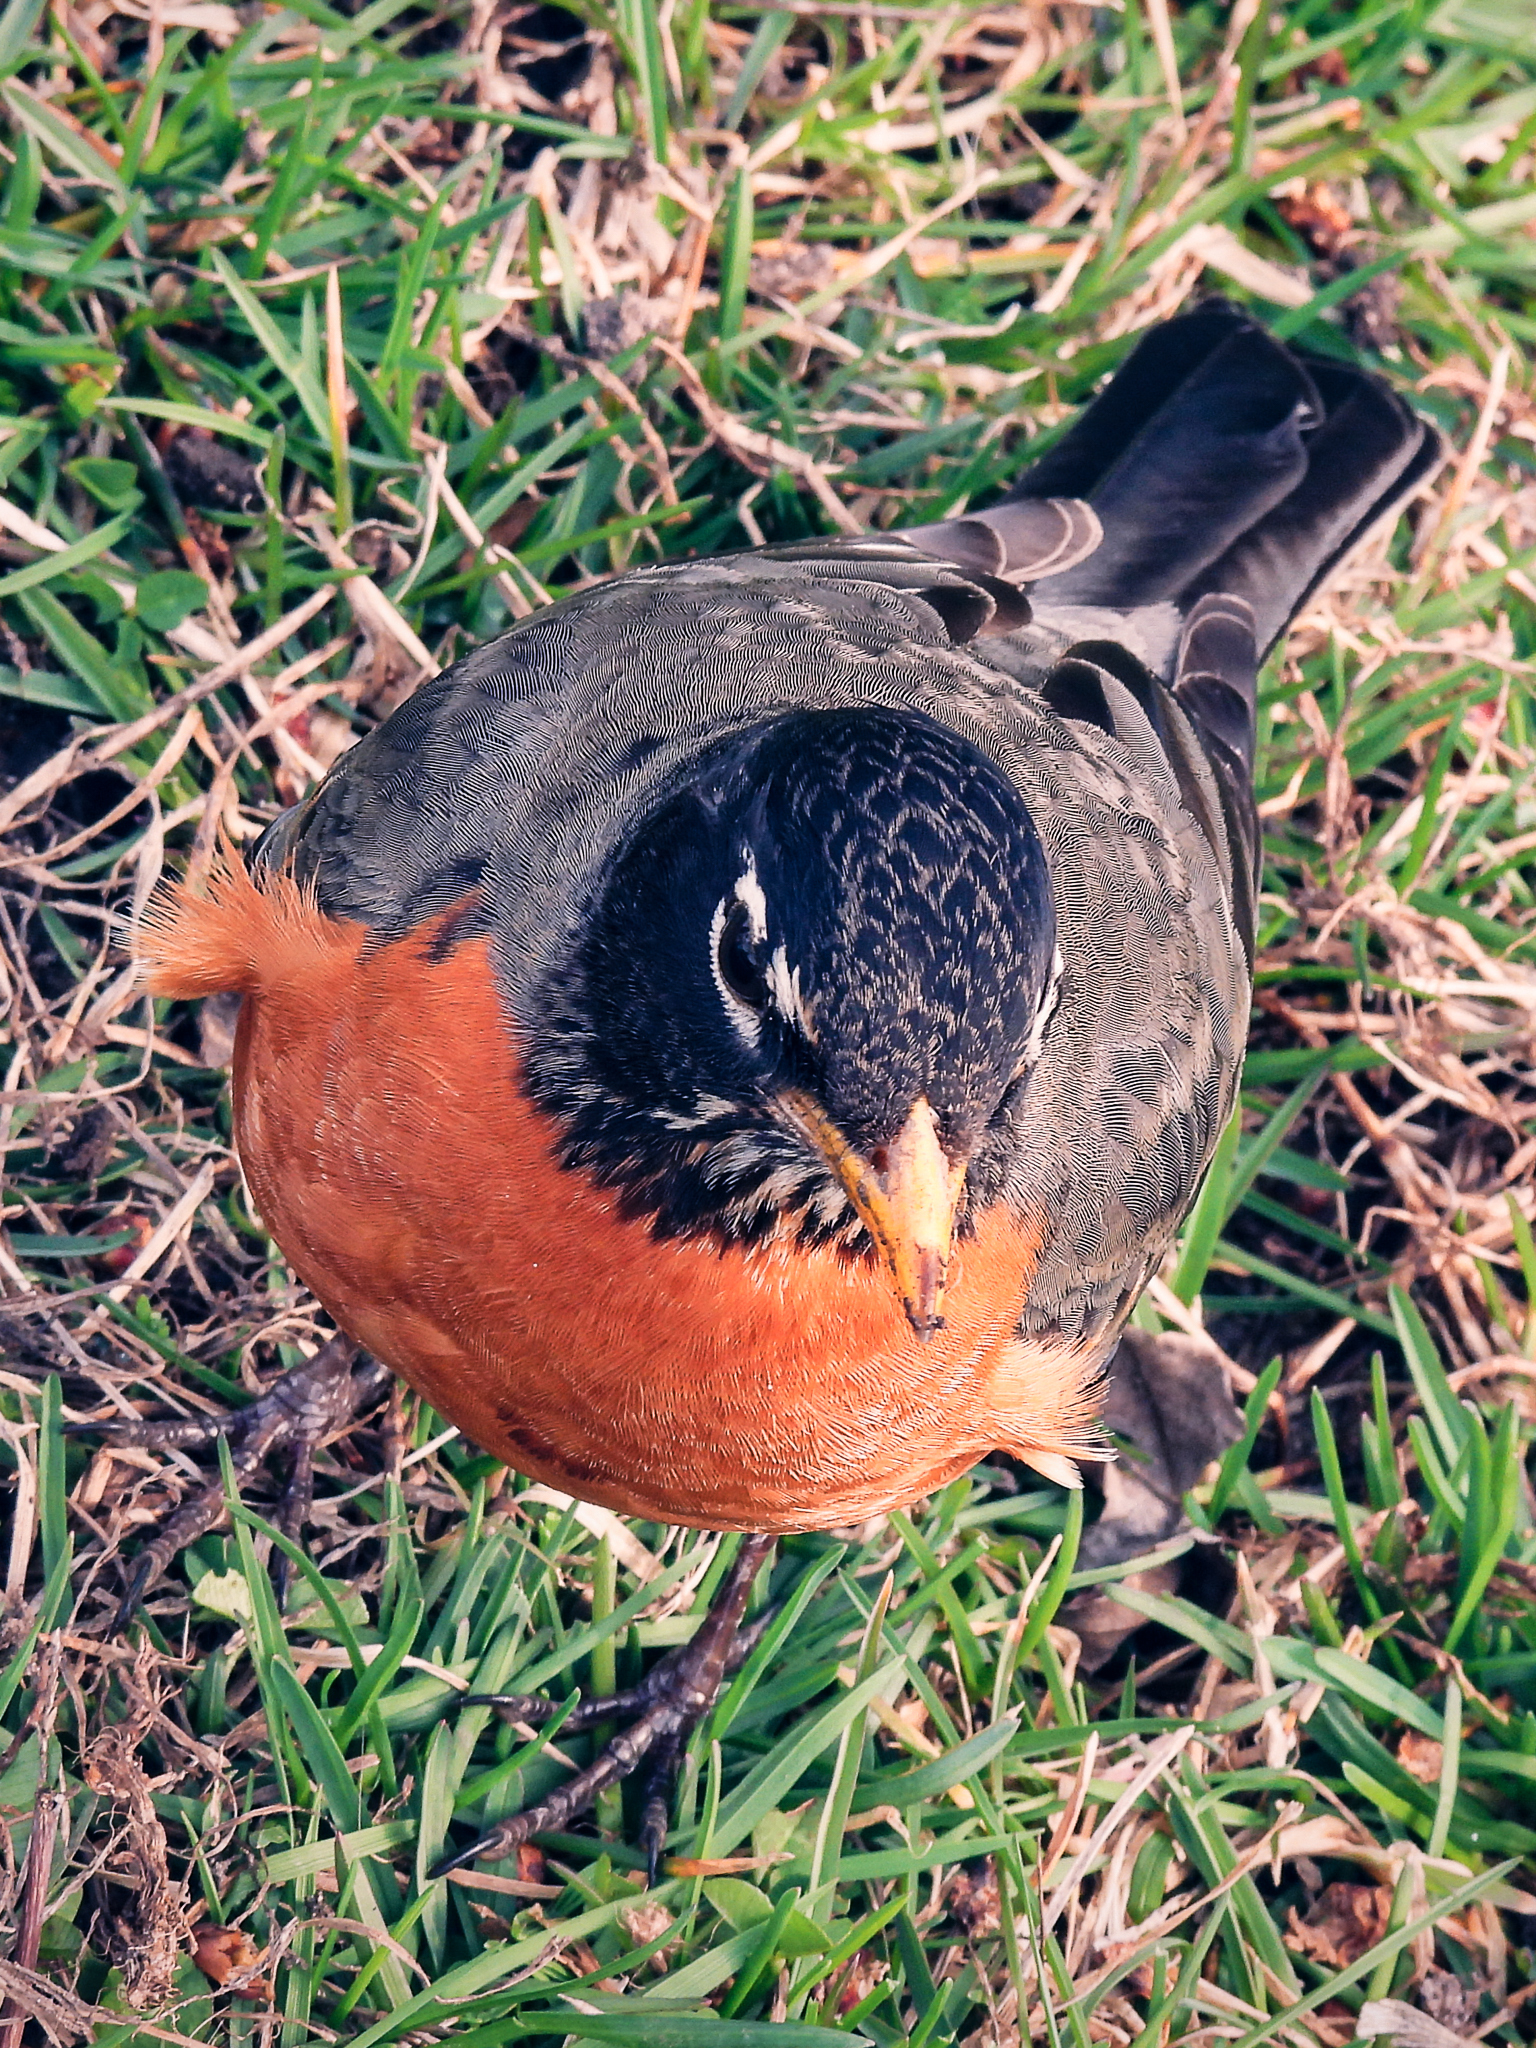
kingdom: Animalia
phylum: Chordata
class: Aves
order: Passeriformes
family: Turdidae
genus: Turdus
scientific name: Turdus migratorius
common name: American robin
